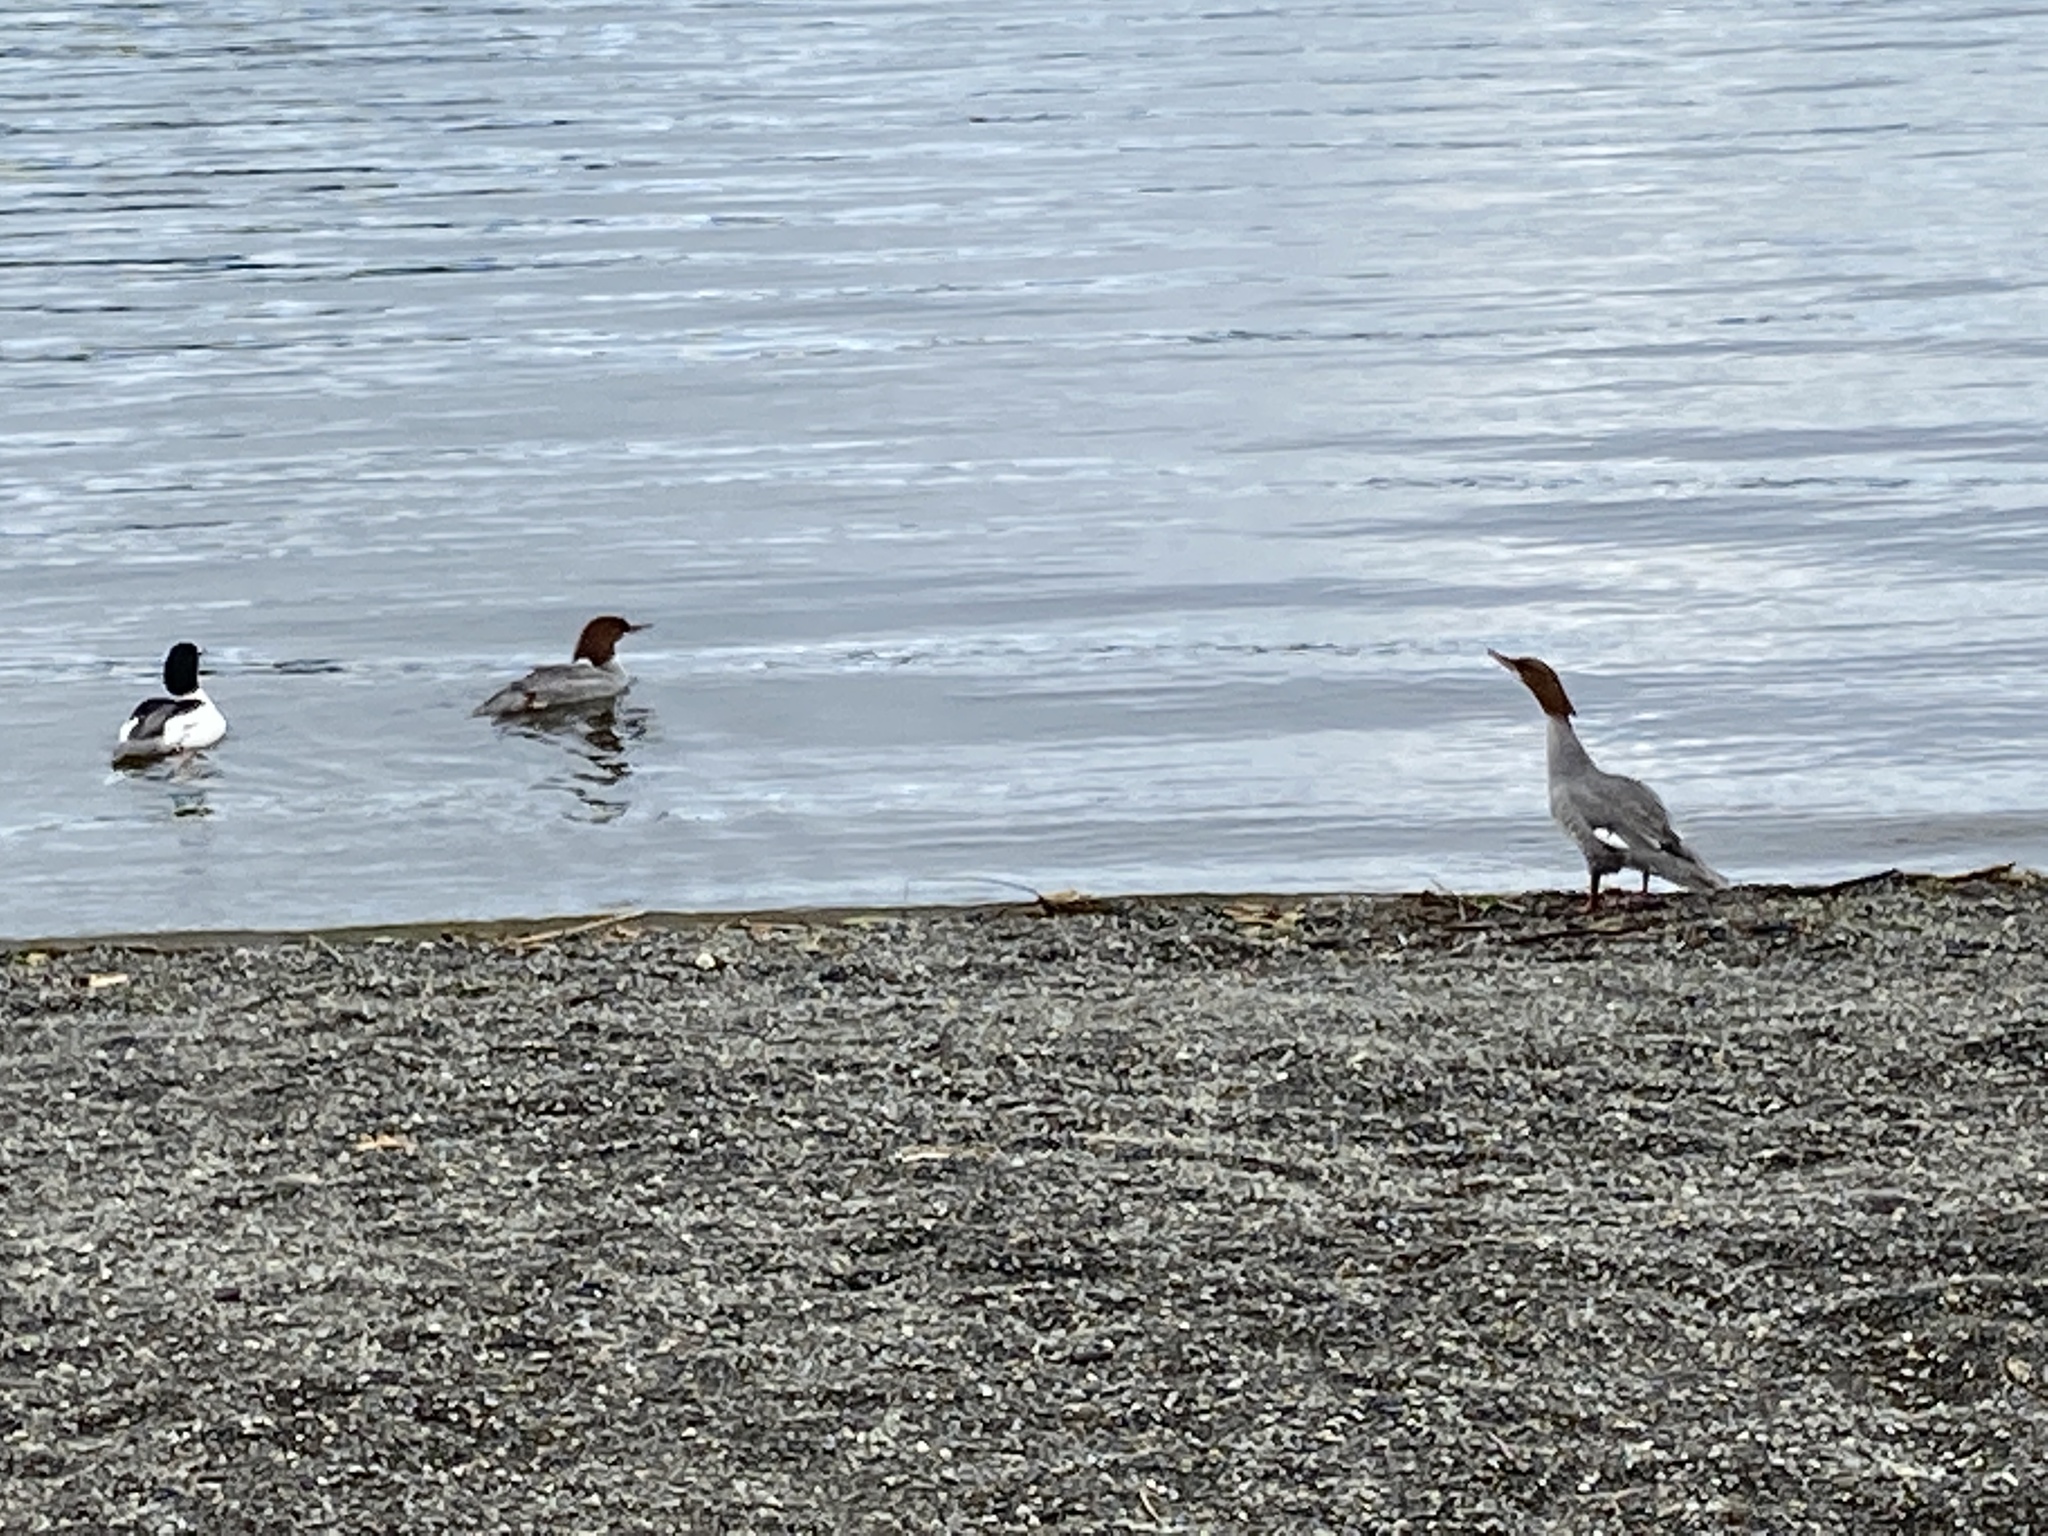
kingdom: Animalia
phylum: Chordata
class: Aves
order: Anseriformes
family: Anatidae
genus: Mergus
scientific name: Mergus merganser
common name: Common merganser
